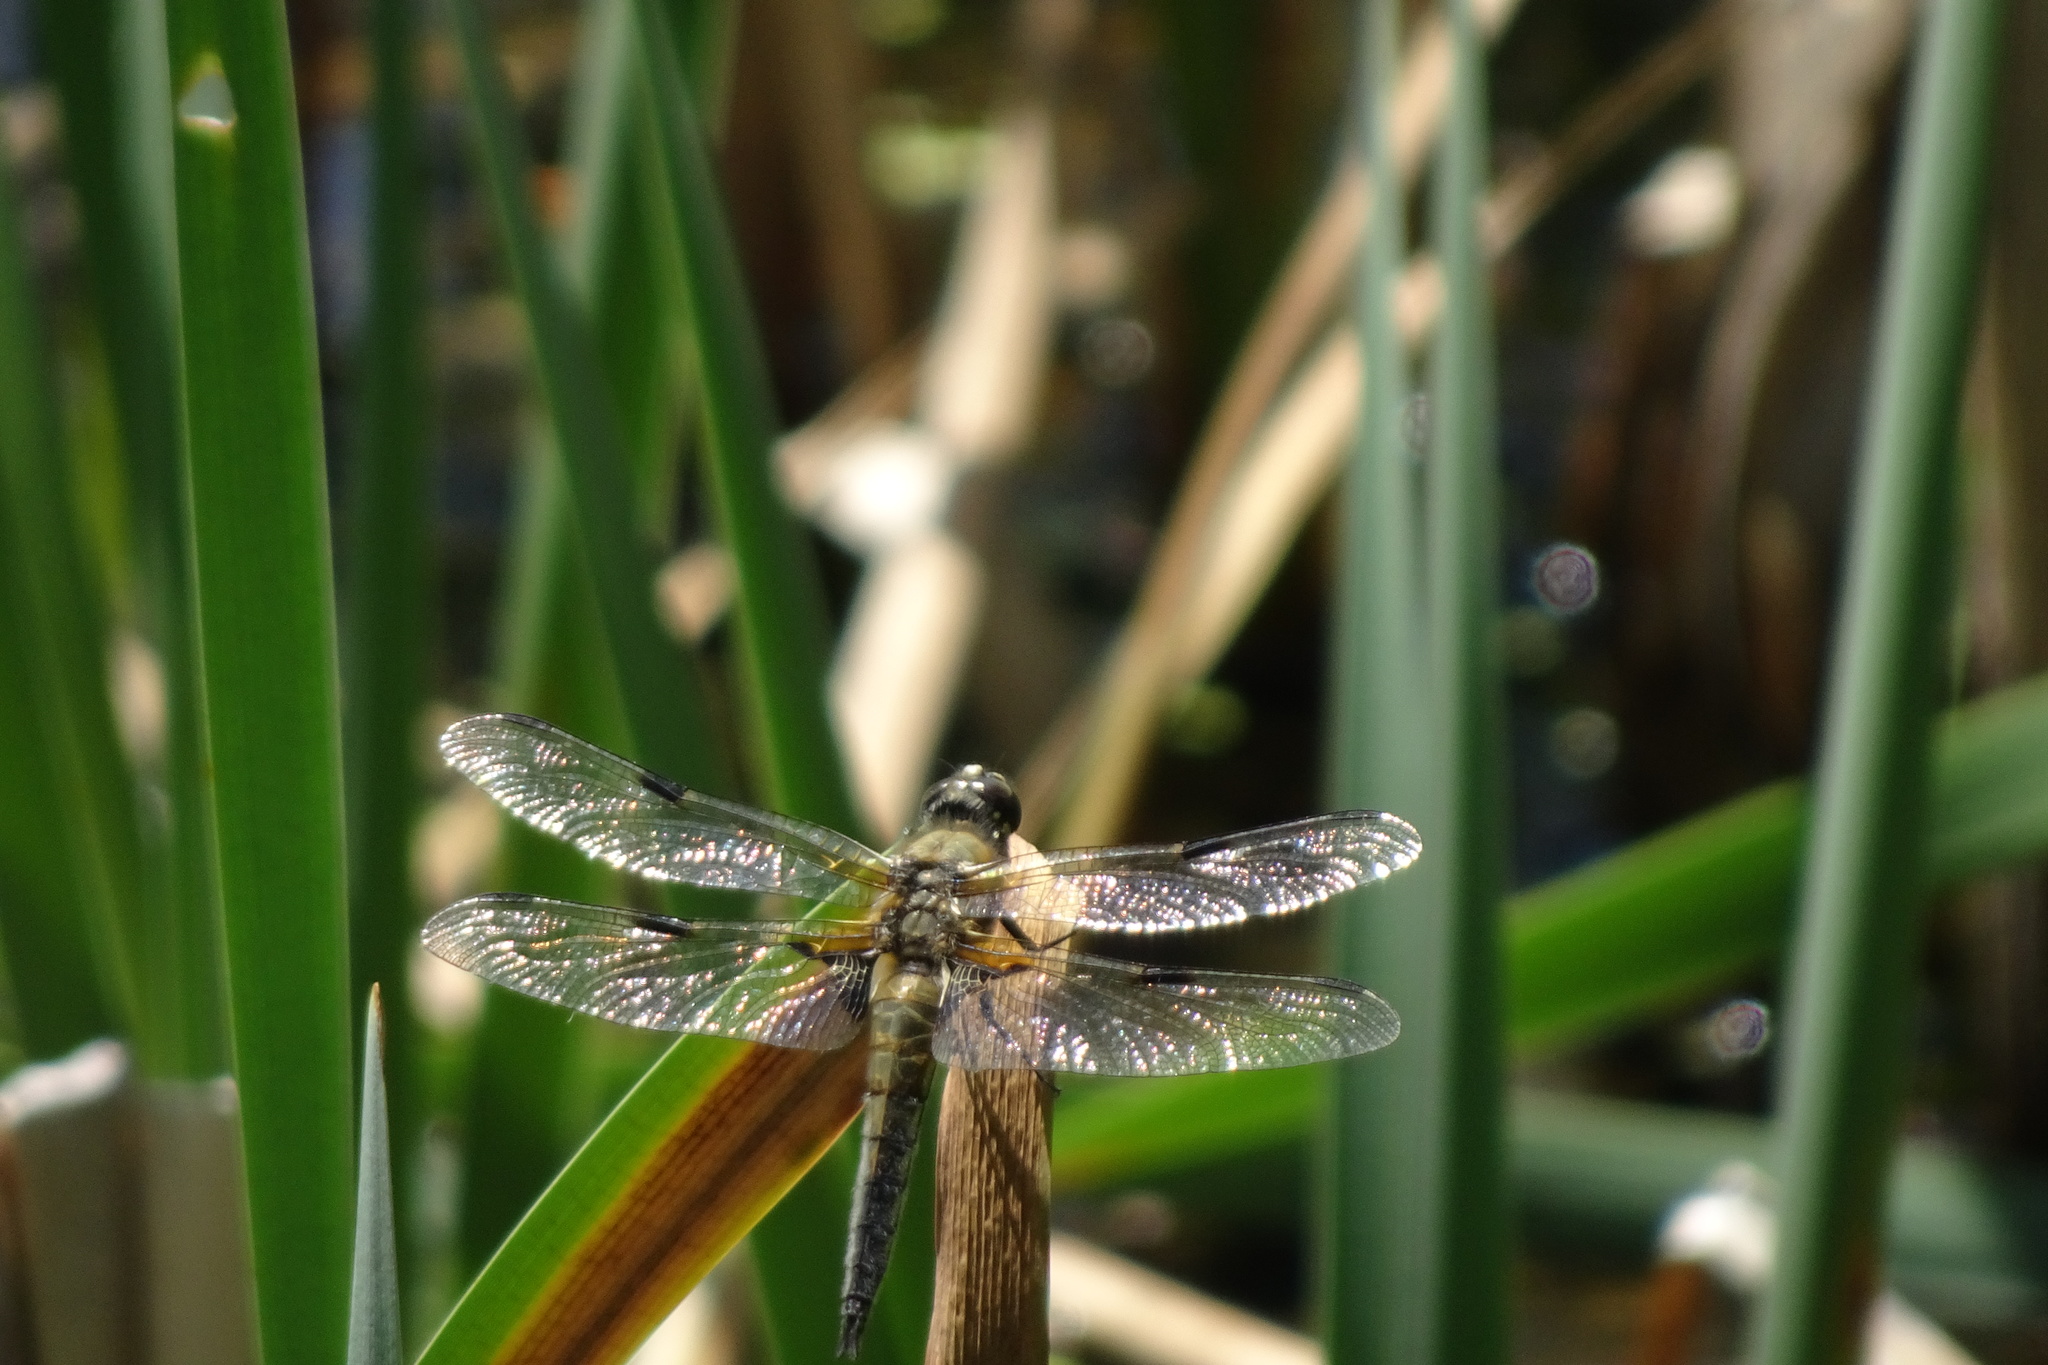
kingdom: Animalia
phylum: Arthropoda
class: Insecta
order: Odonata
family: Libellulidae
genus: Libellula
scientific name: Libellula quadrimaculata
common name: Four-spotted chaser
